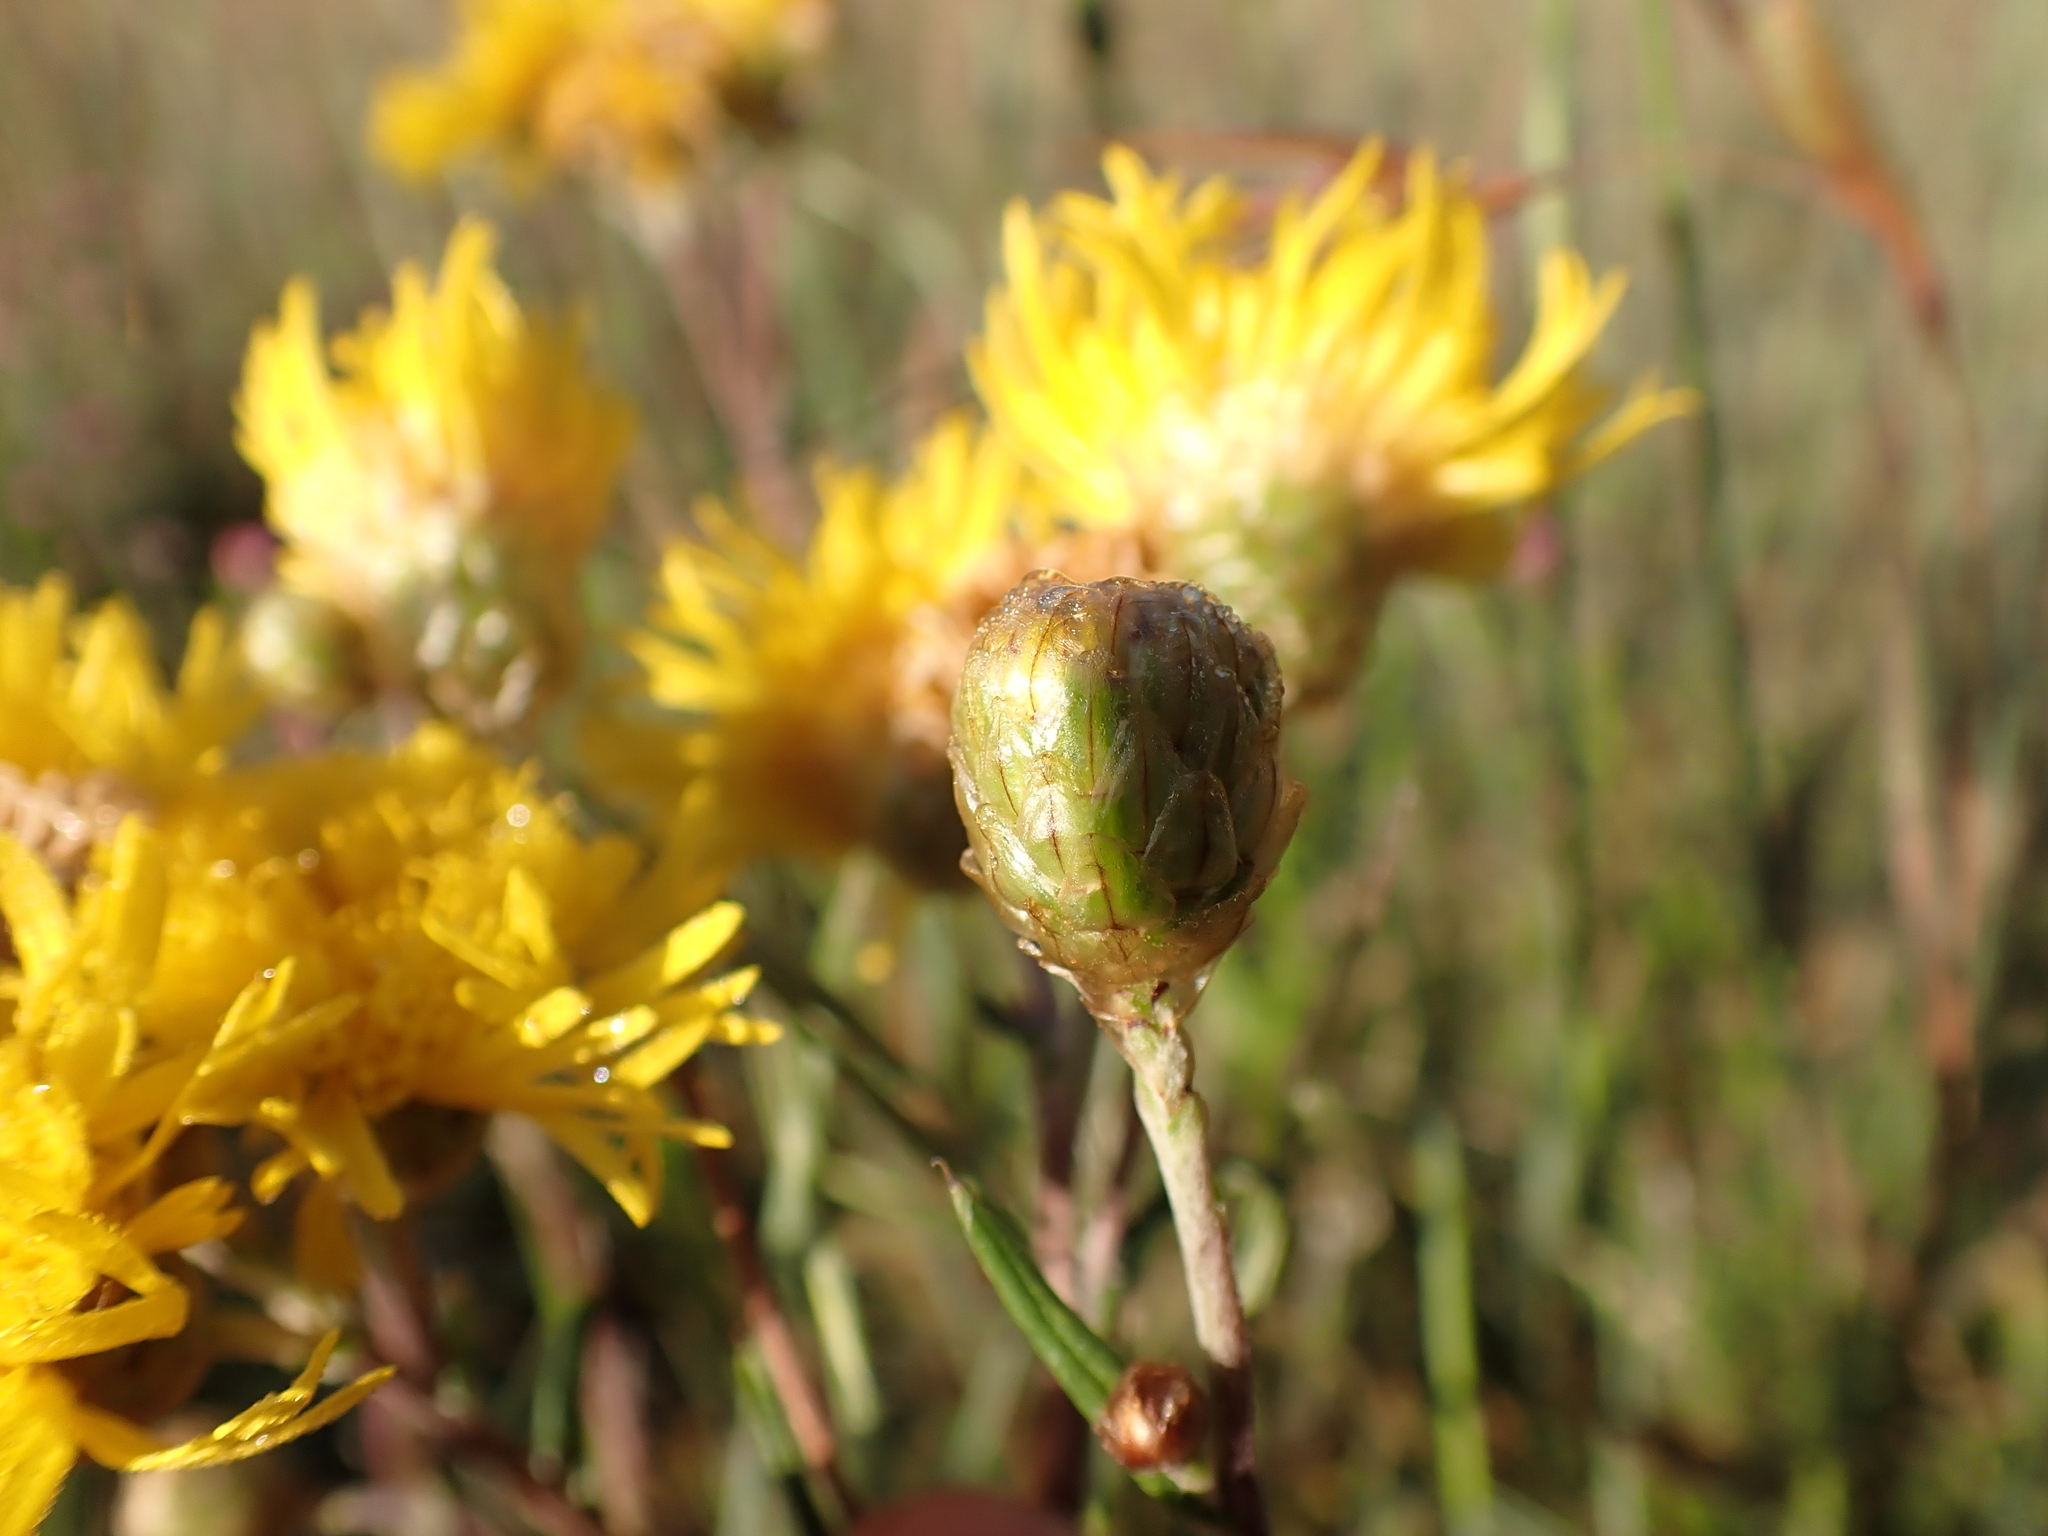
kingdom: Plantae
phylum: Tracheophyta
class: Magnoliopsida
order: Asterales
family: Asteraceae
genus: Podolepis
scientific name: Podolepis hieracioides
